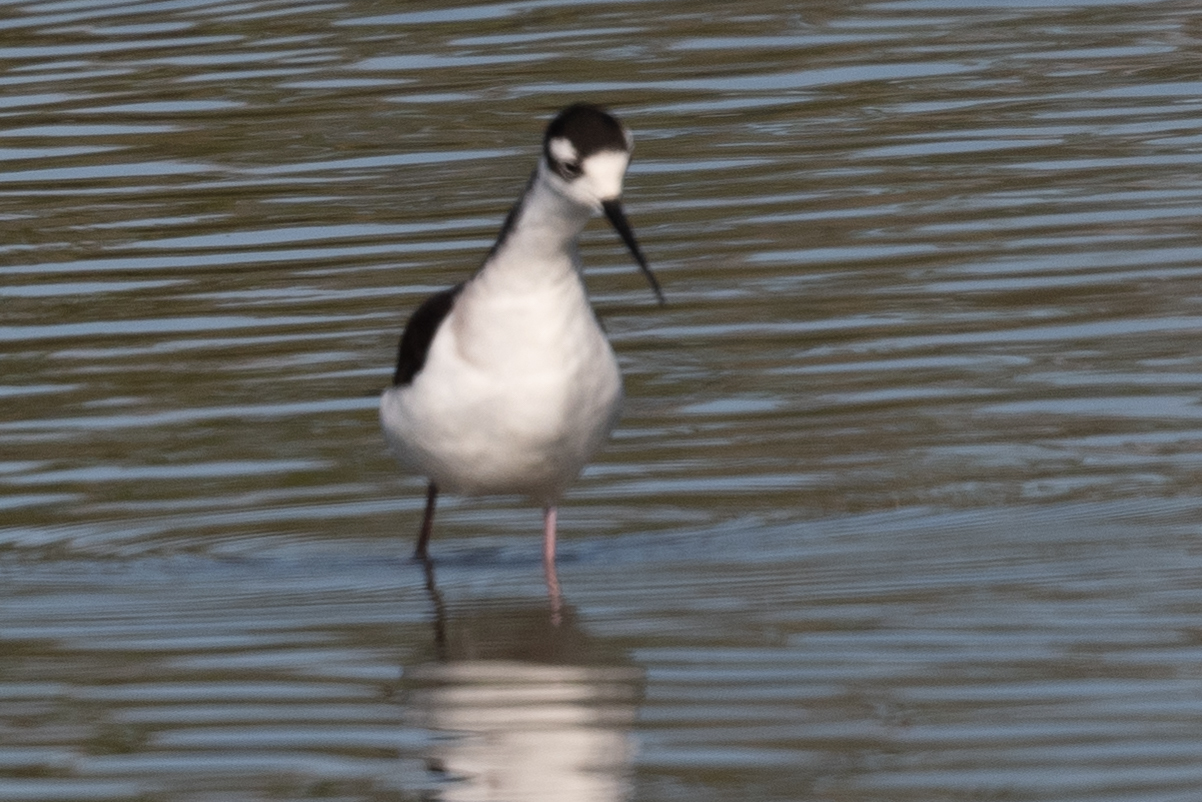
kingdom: Animalia
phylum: Chordata
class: Aves
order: Charadriiformes
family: Recurvirostridae
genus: Himantopus
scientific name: Himantopus mexicanus
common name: Black-necked stilt
